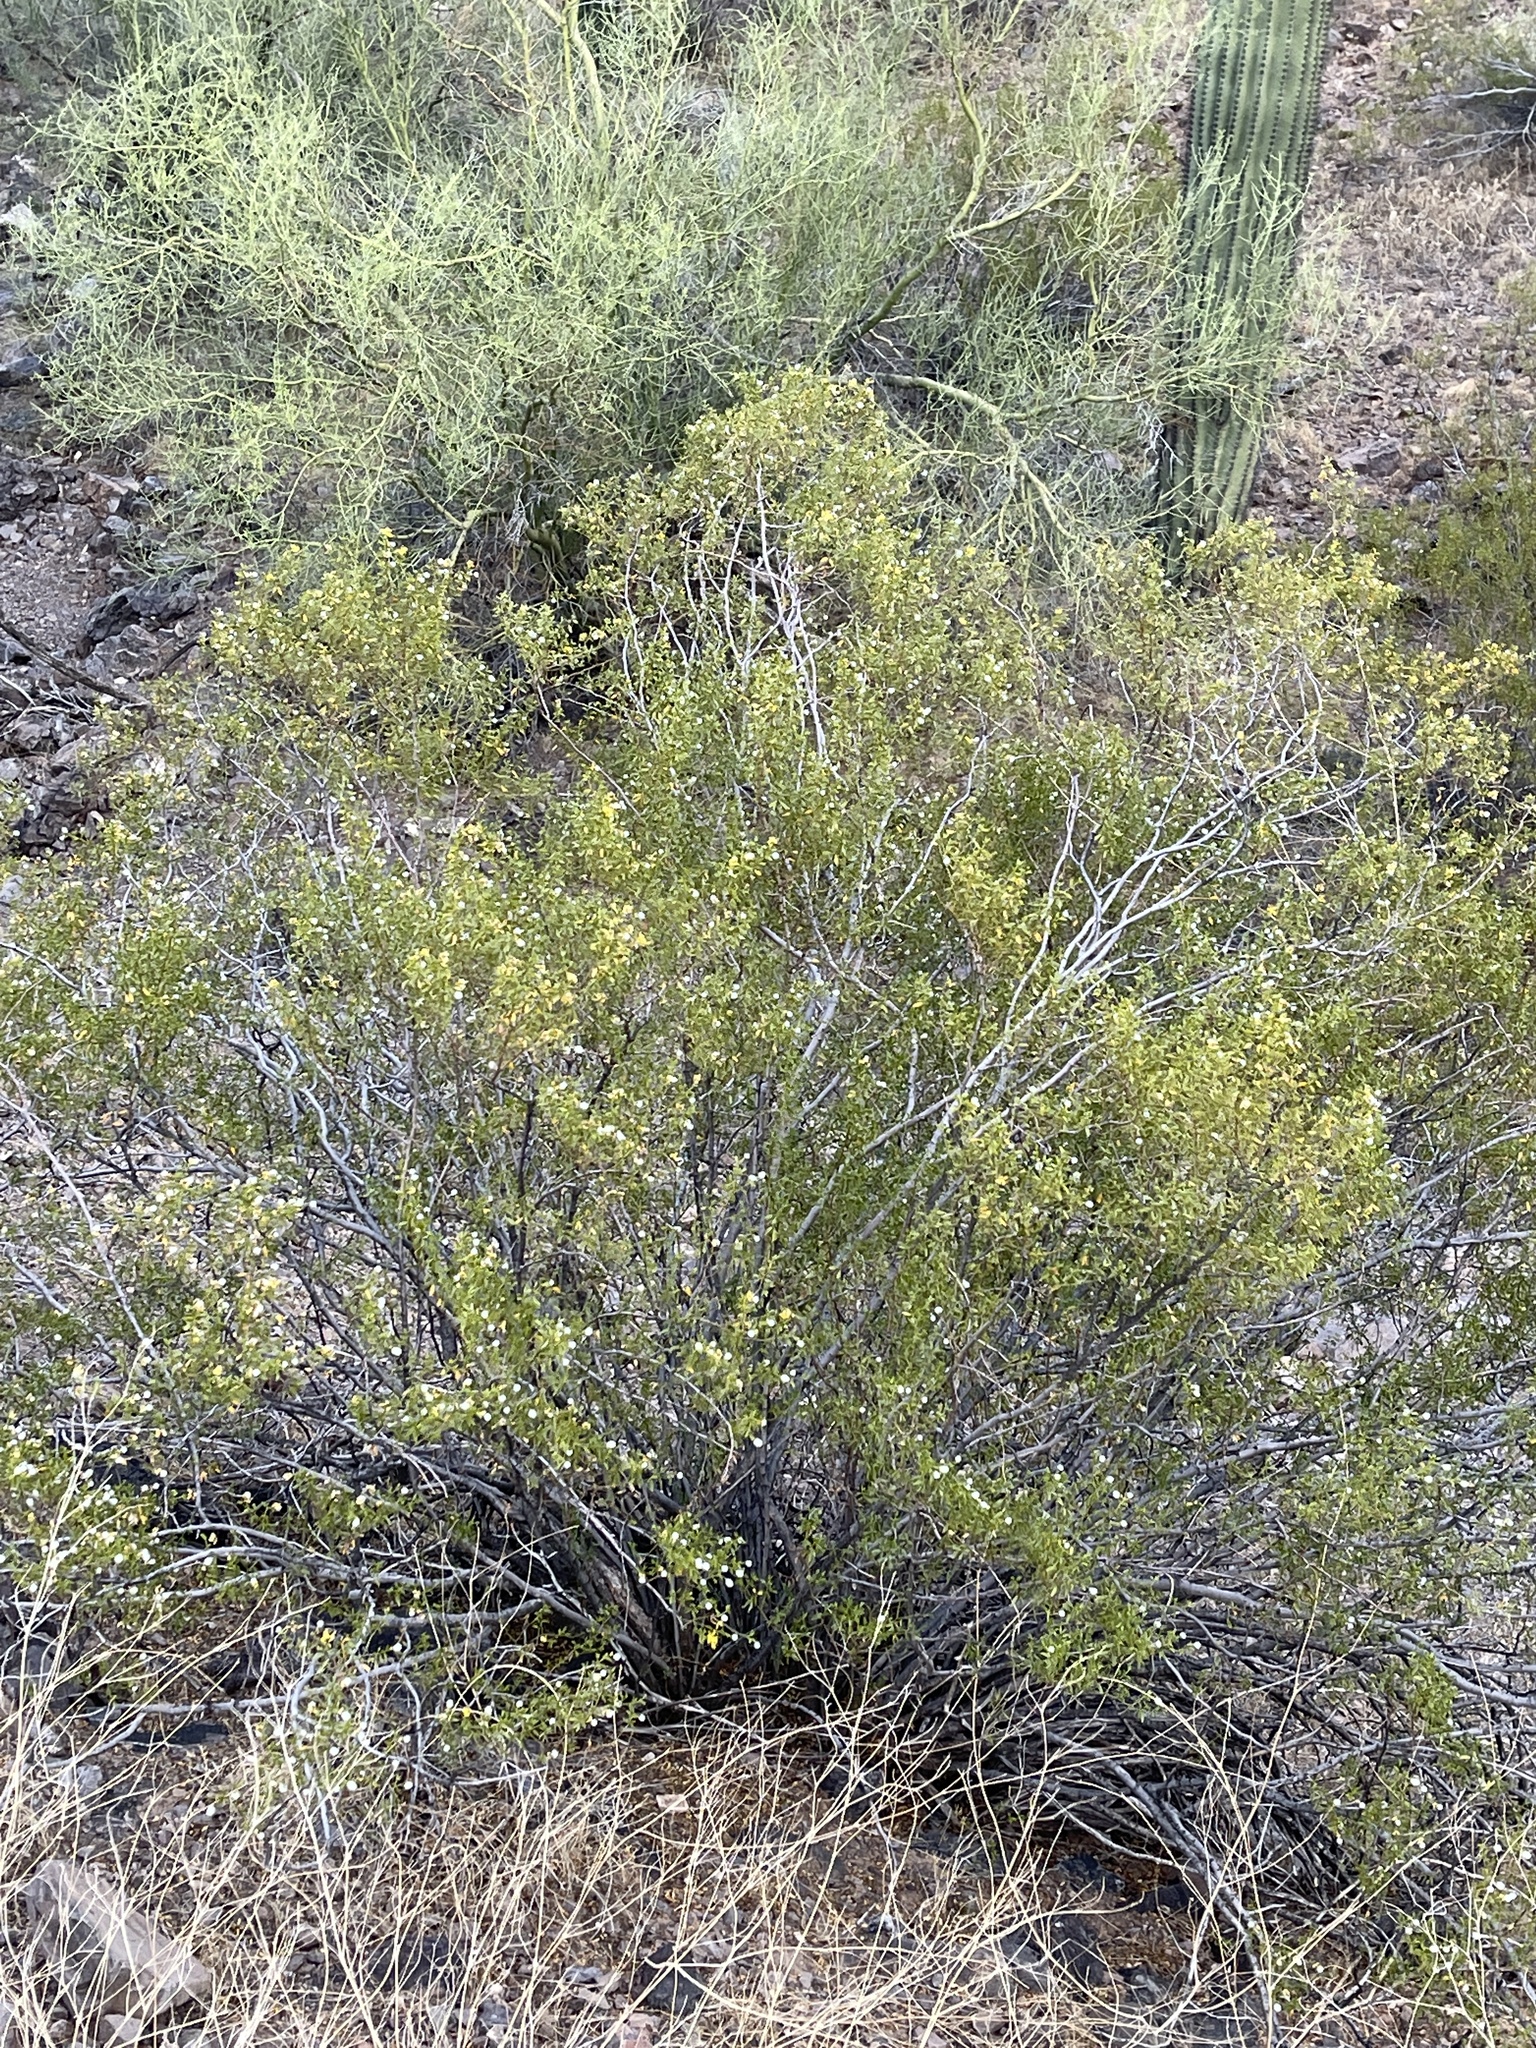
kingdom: Plantae
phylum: Tracheophyta
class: Magnoliopsida
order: Zygophyllales
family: Zygophyllaceae
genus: Larrea
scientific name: Larrea tridentata
